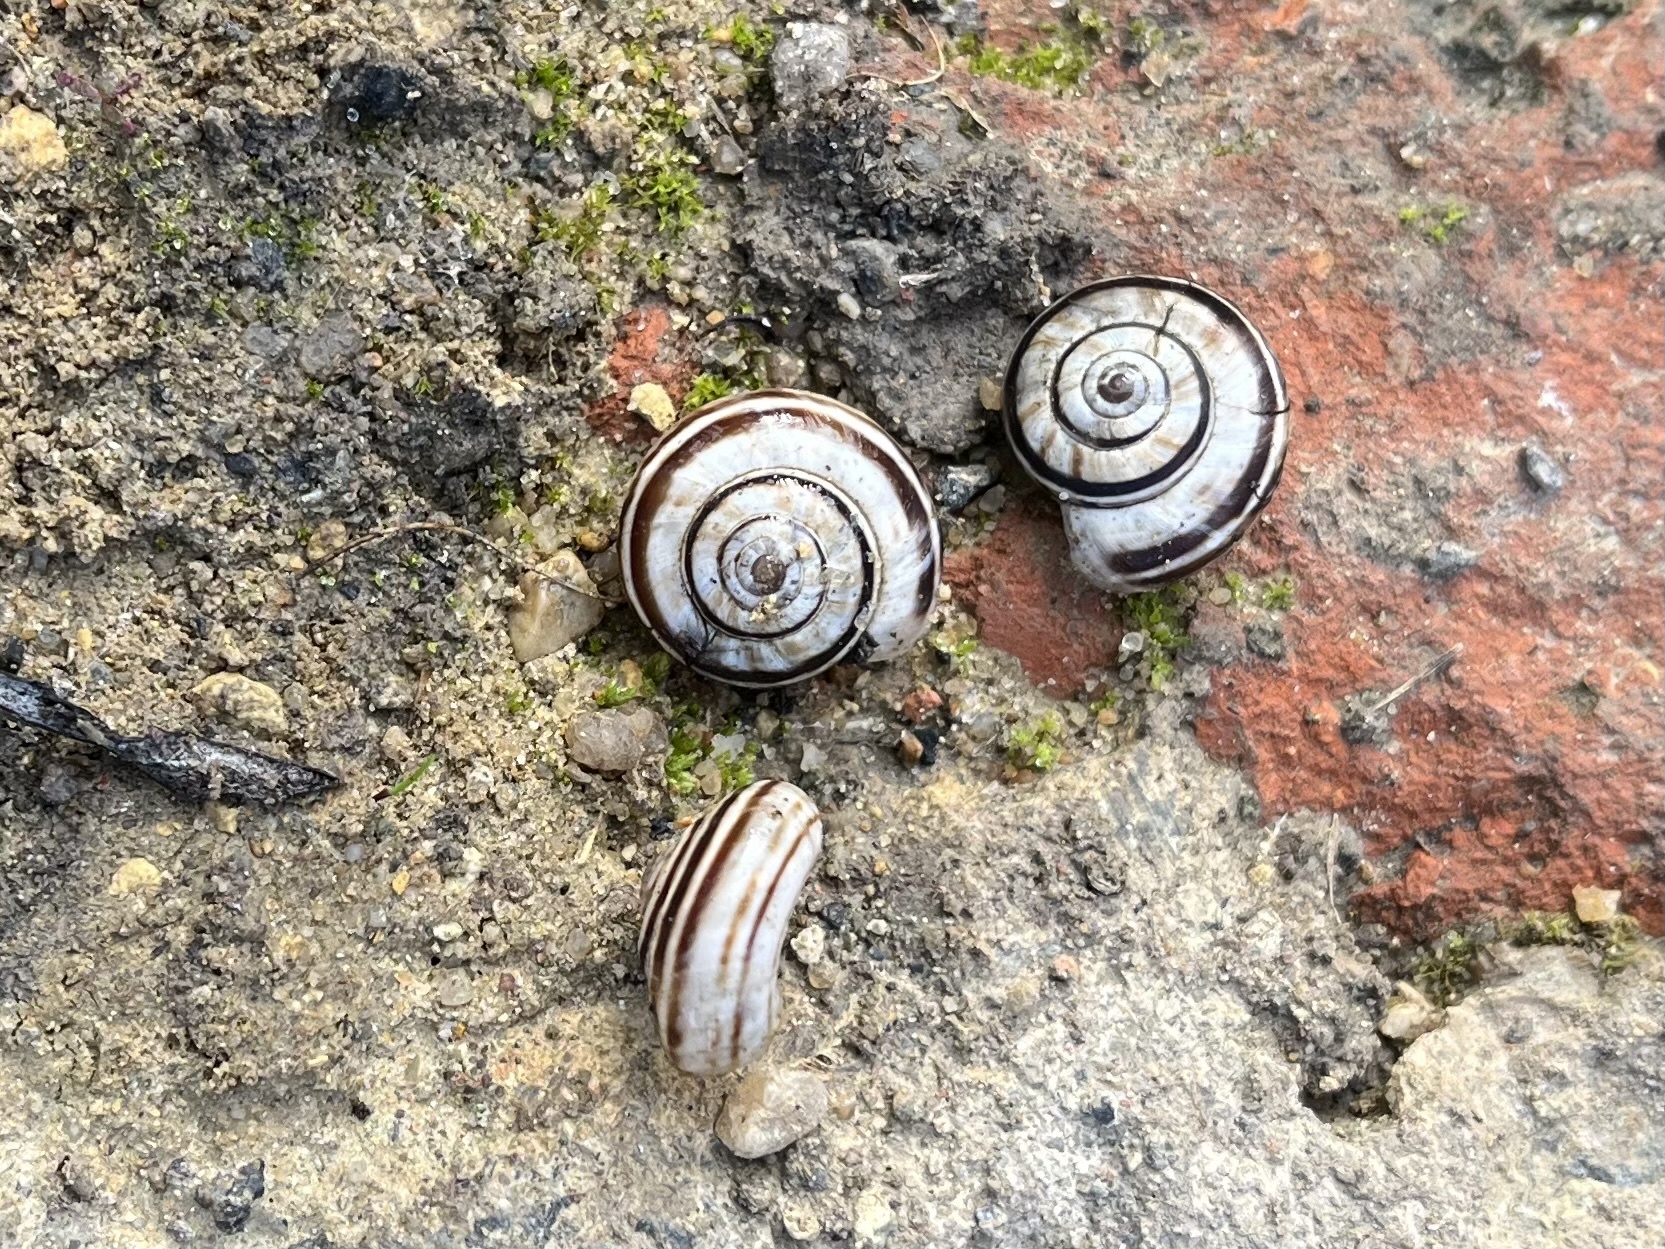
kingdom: Animalia
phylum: Mollusca
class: Gastropoda
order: Stylommatophora
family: Geomitridae
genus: Xerolenta
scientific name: Xerolenta obvia
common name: White heath snail
